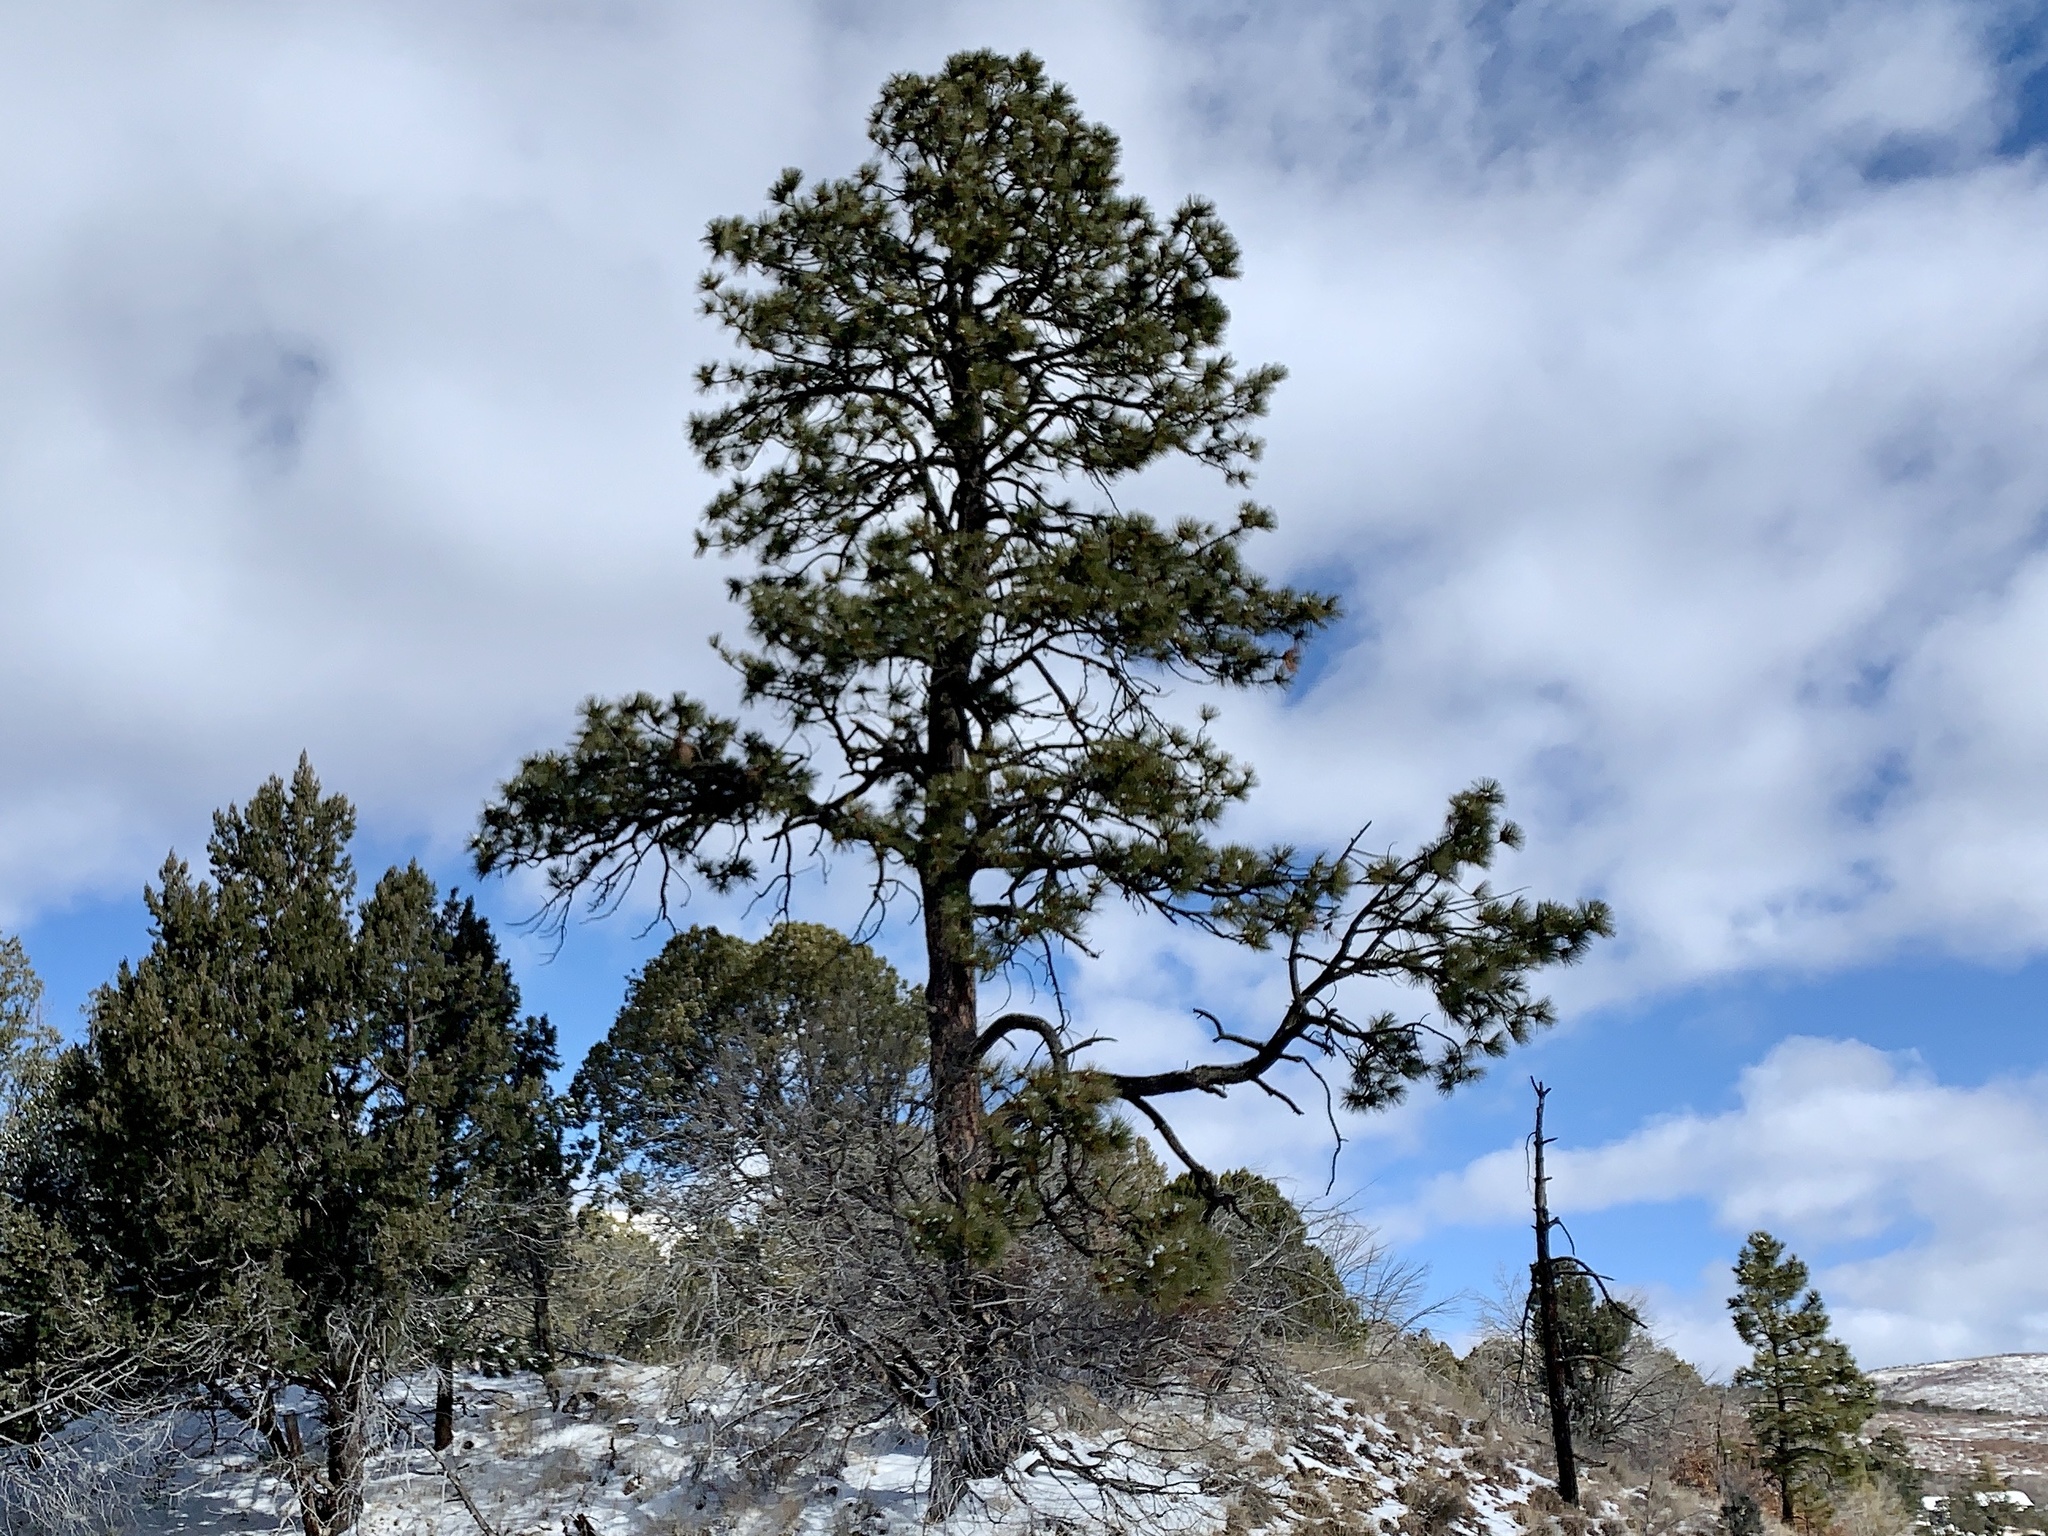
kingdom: Plantae
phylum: Tracheophyta
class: Pinopsida
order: Pinales
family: Pinaceae
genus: Pinus
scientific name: Pinus ponderosa
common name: Western yellow-pine
